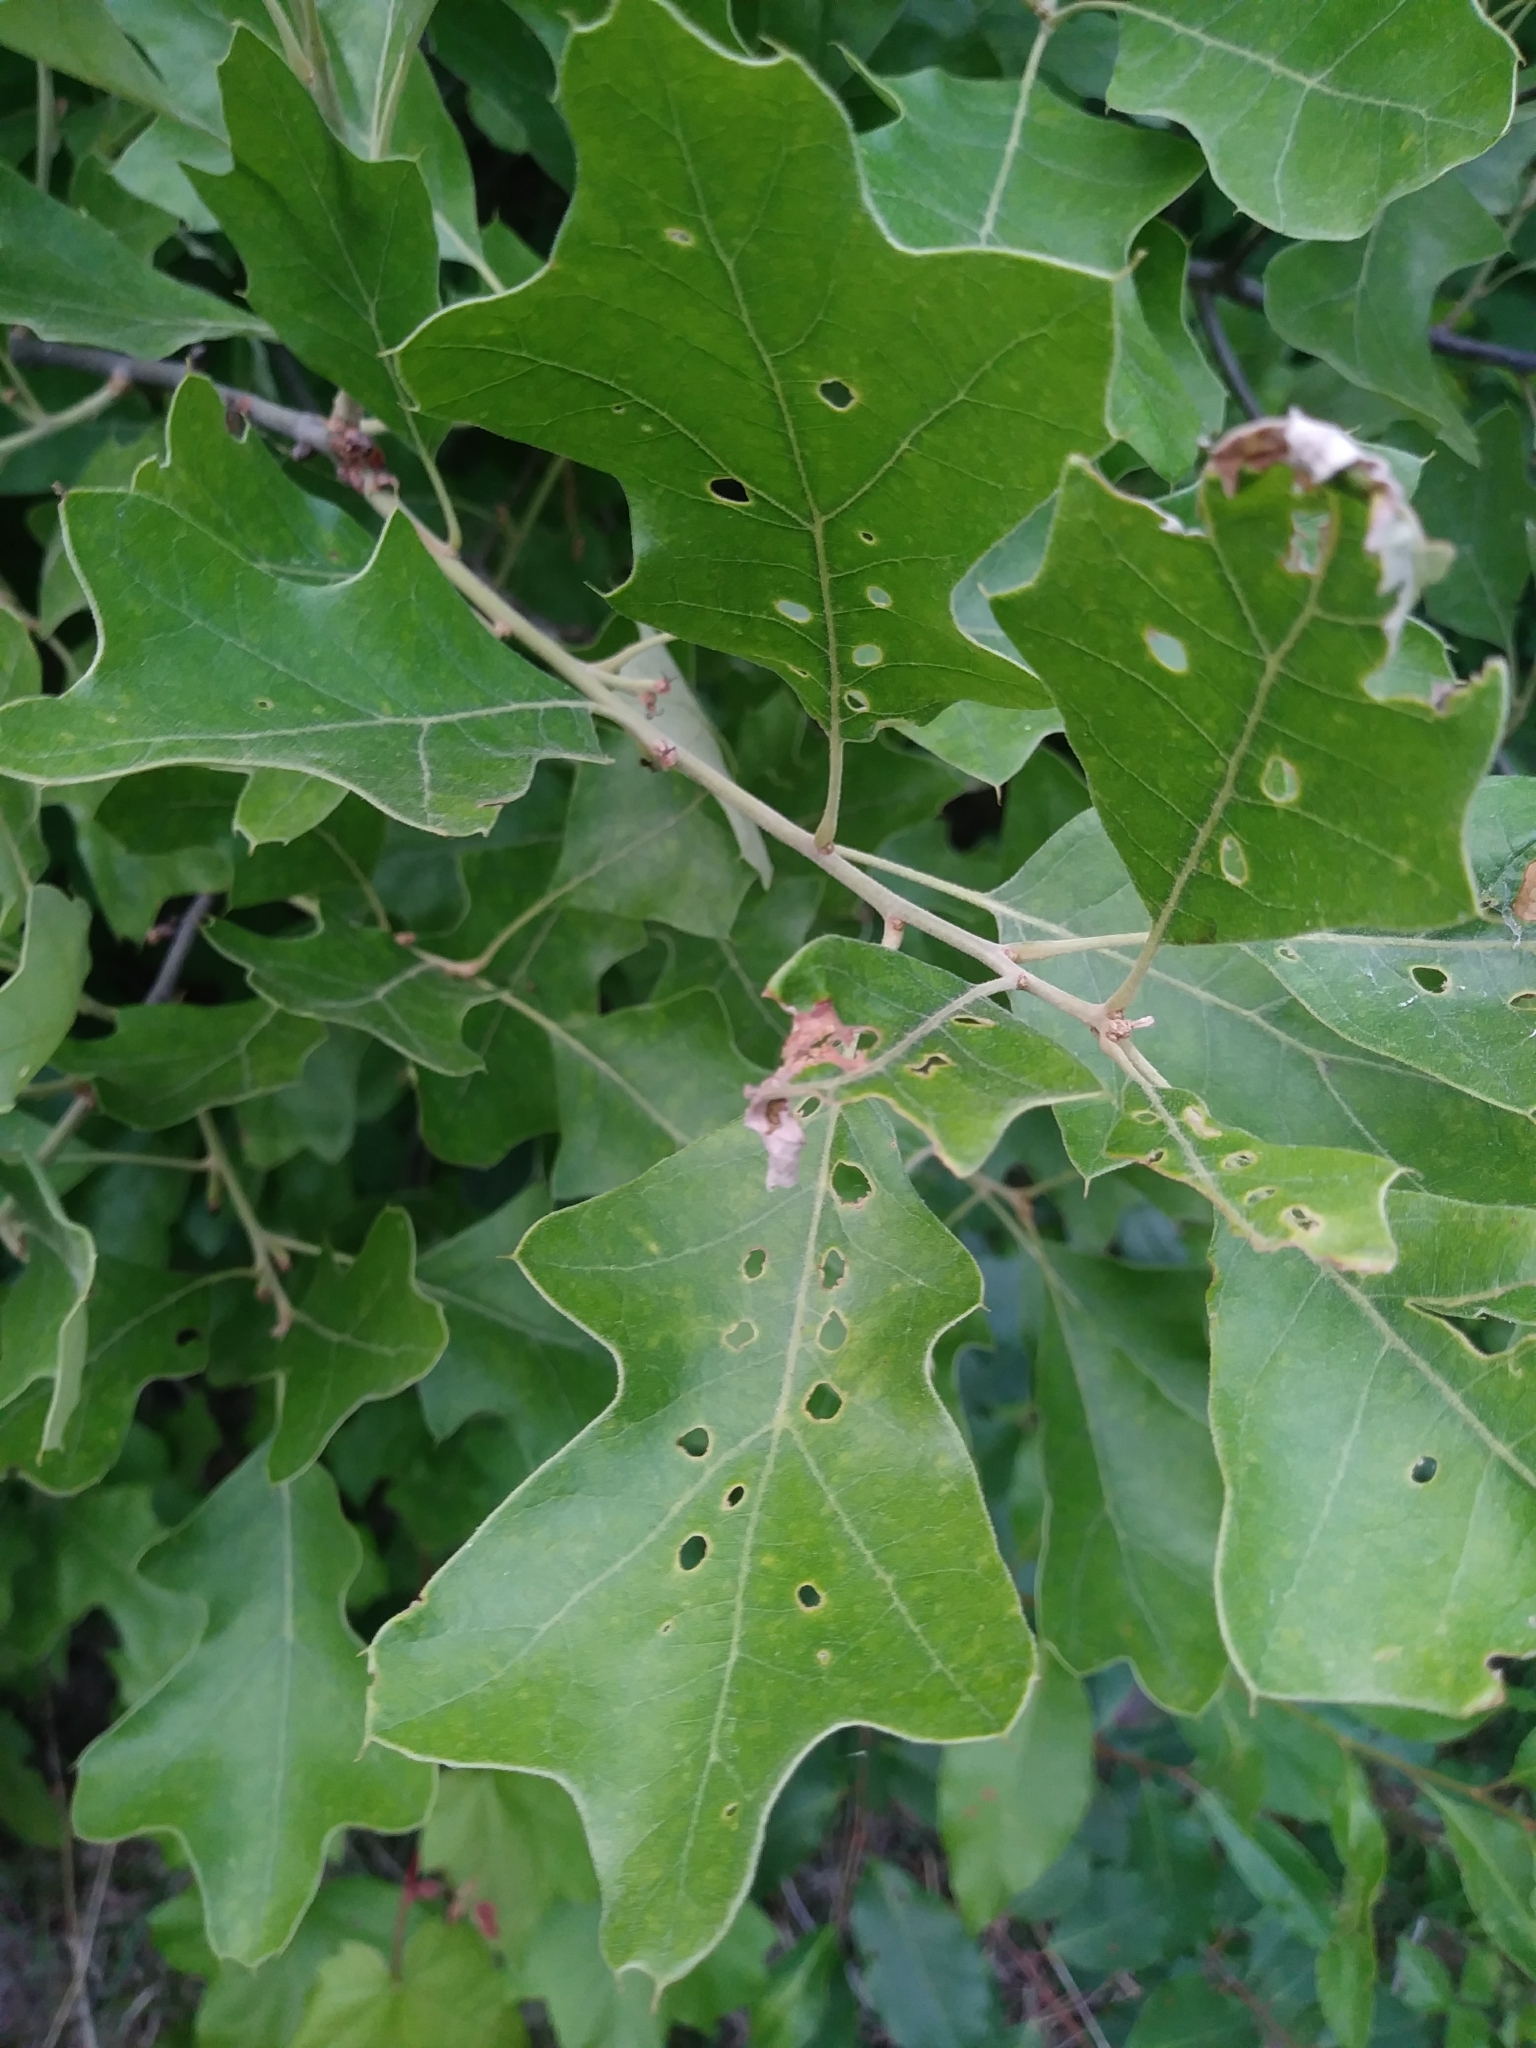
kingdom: Plantae
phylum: Tracheophyta
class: Magnoliopsida
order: Fagales
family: Fagaceae
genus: Quercus
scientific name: Quercus ilicifolia
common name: Bear oak
